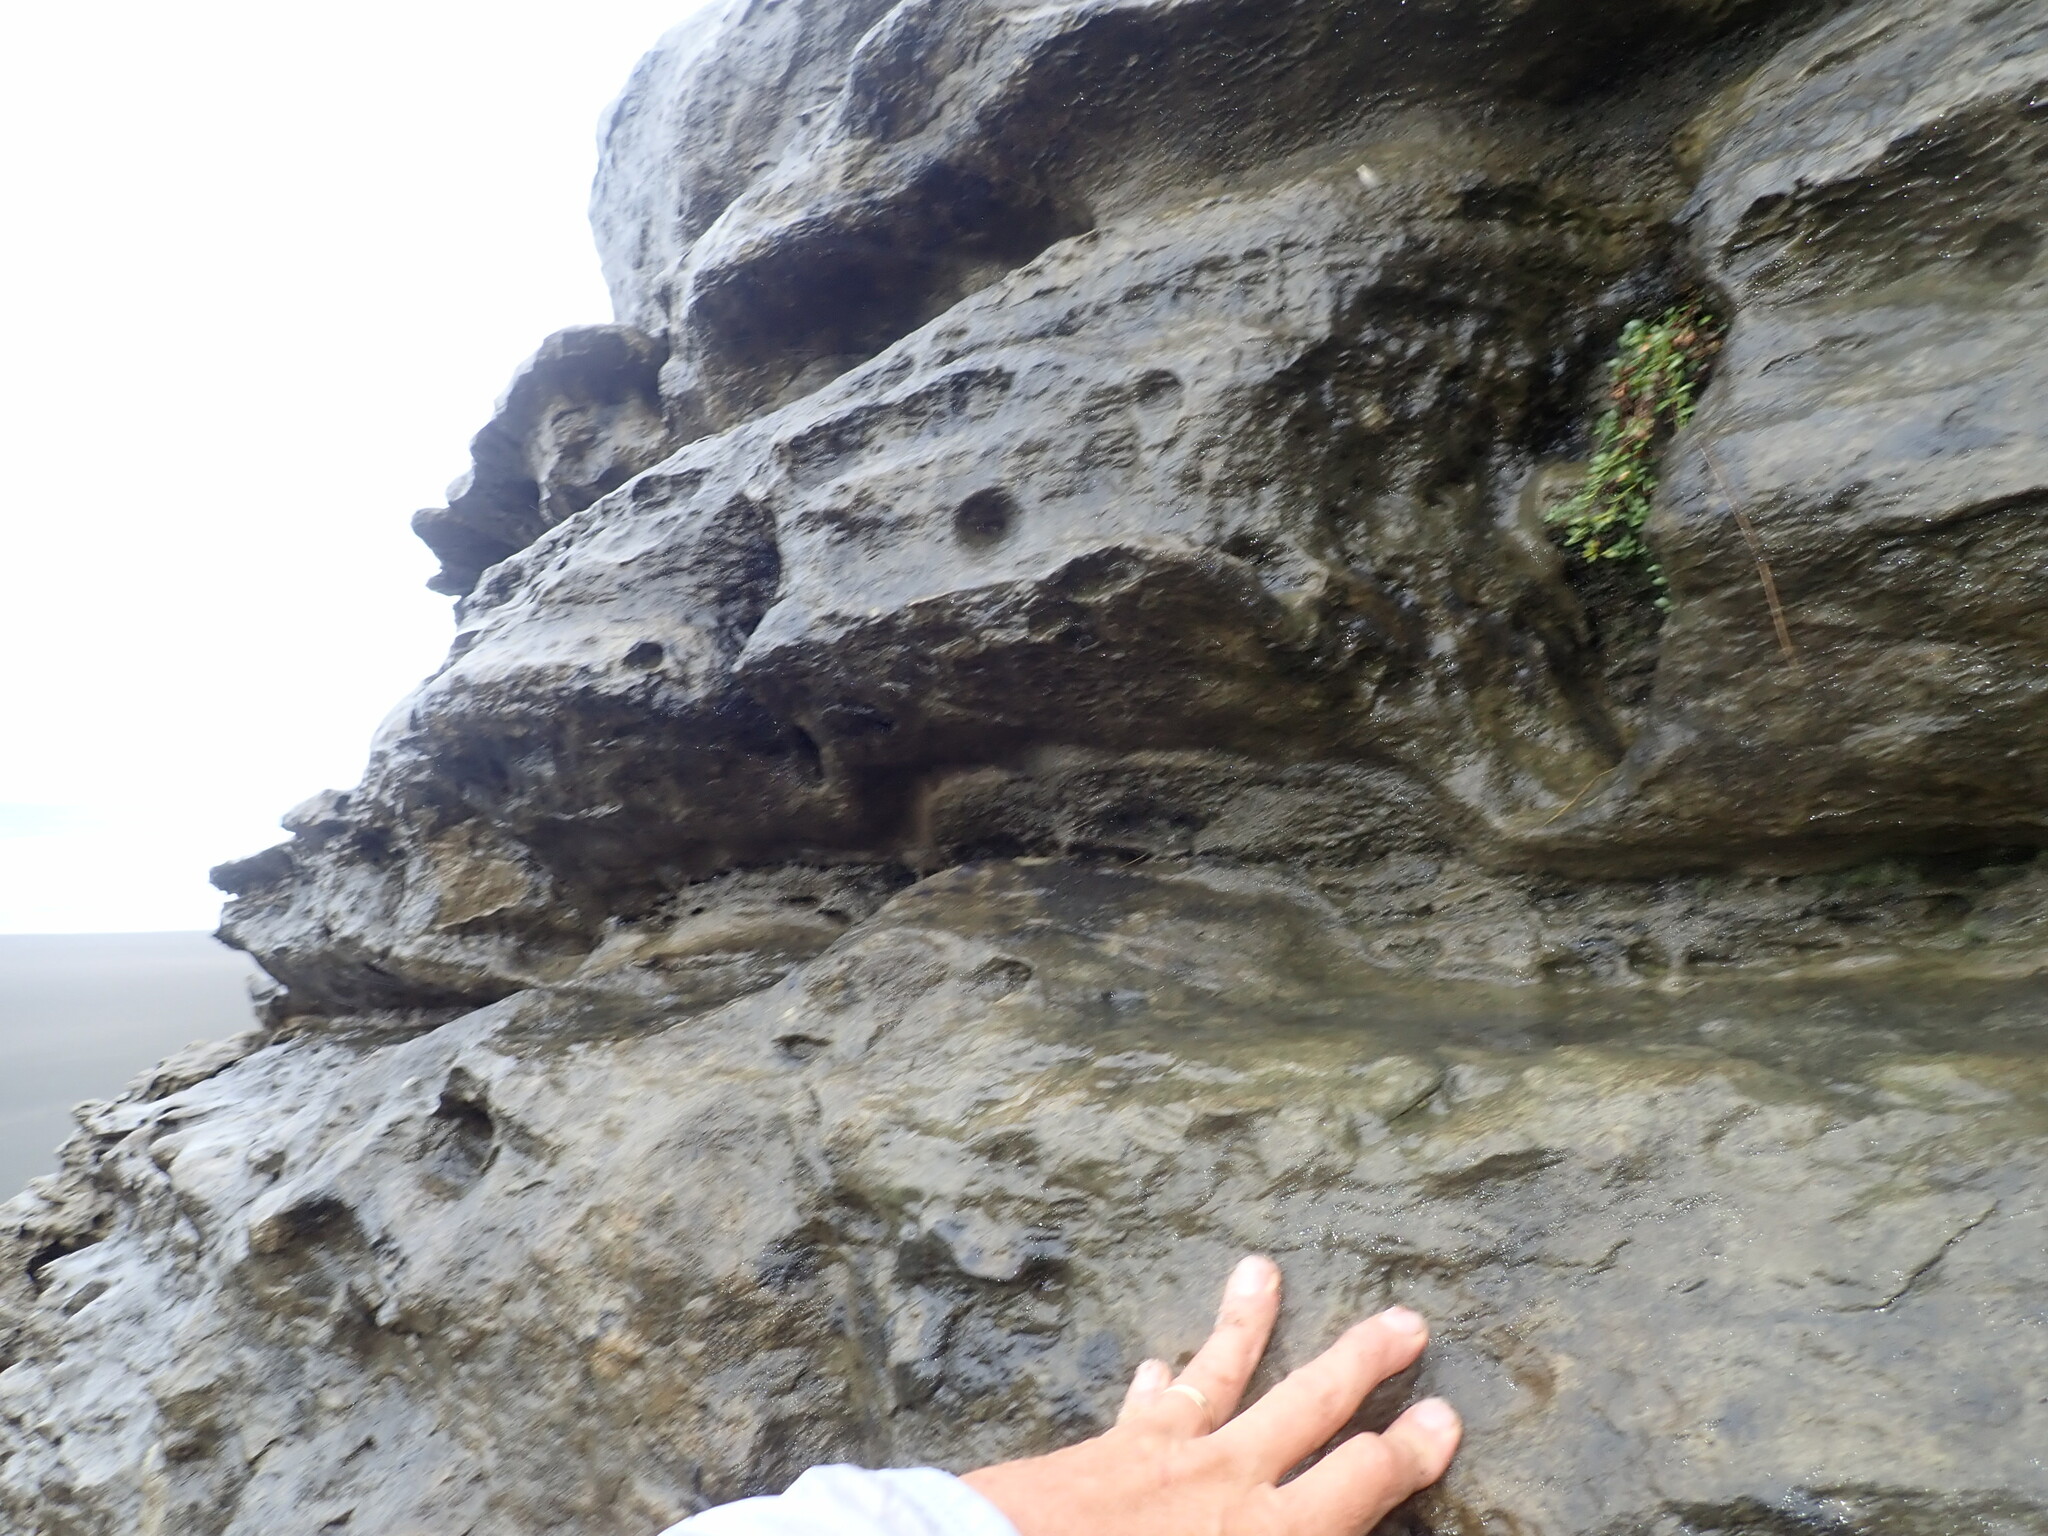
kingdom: Plantae
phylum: Tracheophyta
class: Magnoliopsida
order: Ericales
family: Primulaceae
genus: Samolus
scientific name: Samolus repens
